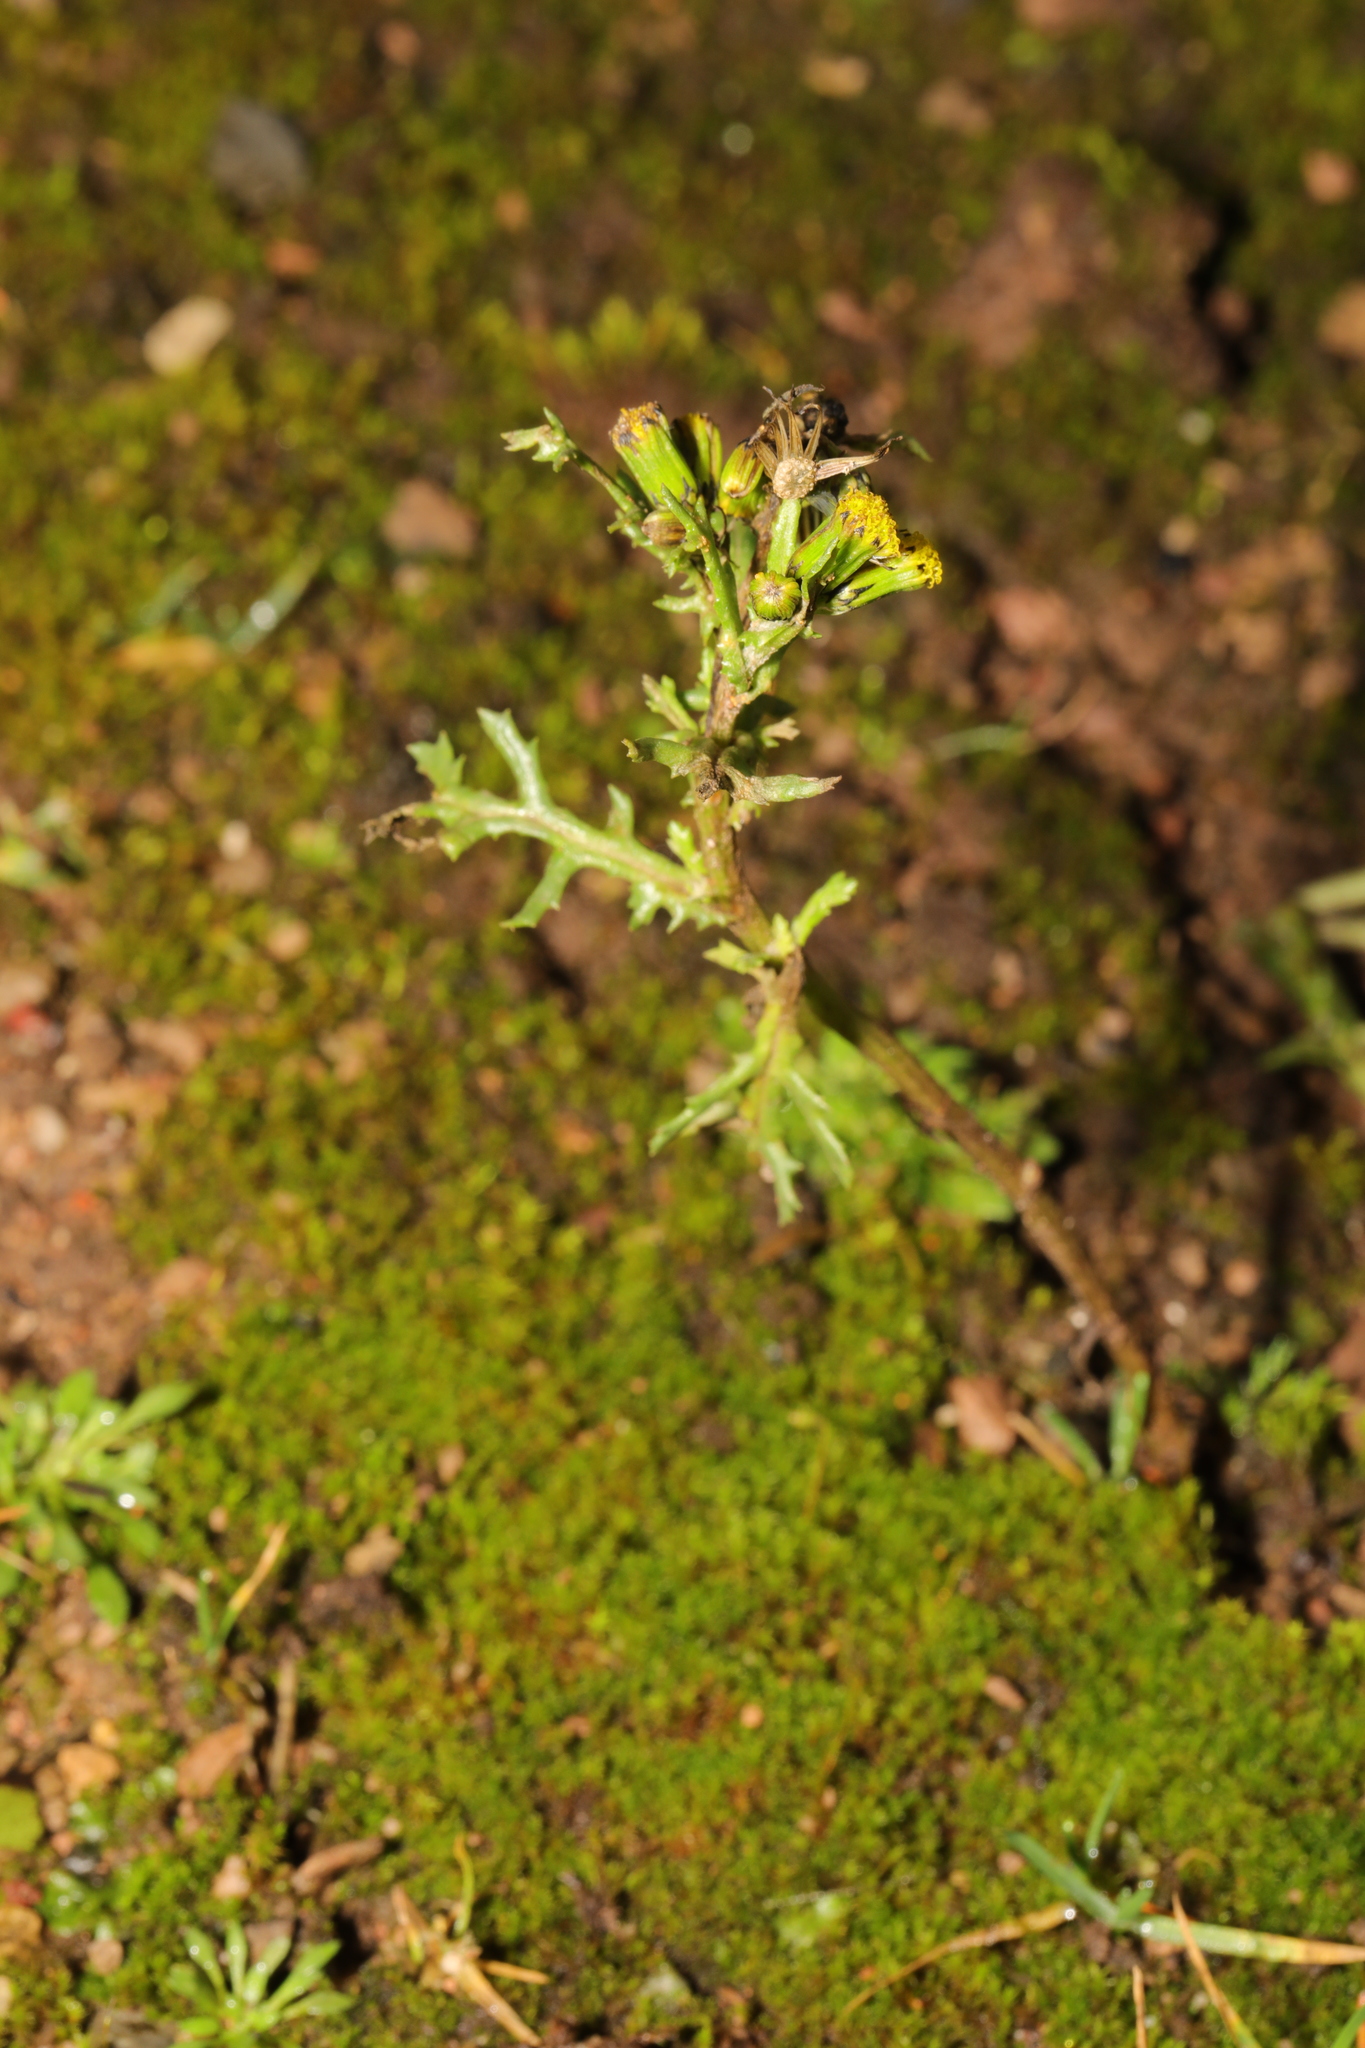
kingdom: Plantae
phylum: Tracheophyta
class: Magnoliopsida
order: Asterales
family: Asteraceae
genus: Senecio
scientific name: Senecio vulgaris
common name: Old-man-in-the-spring
